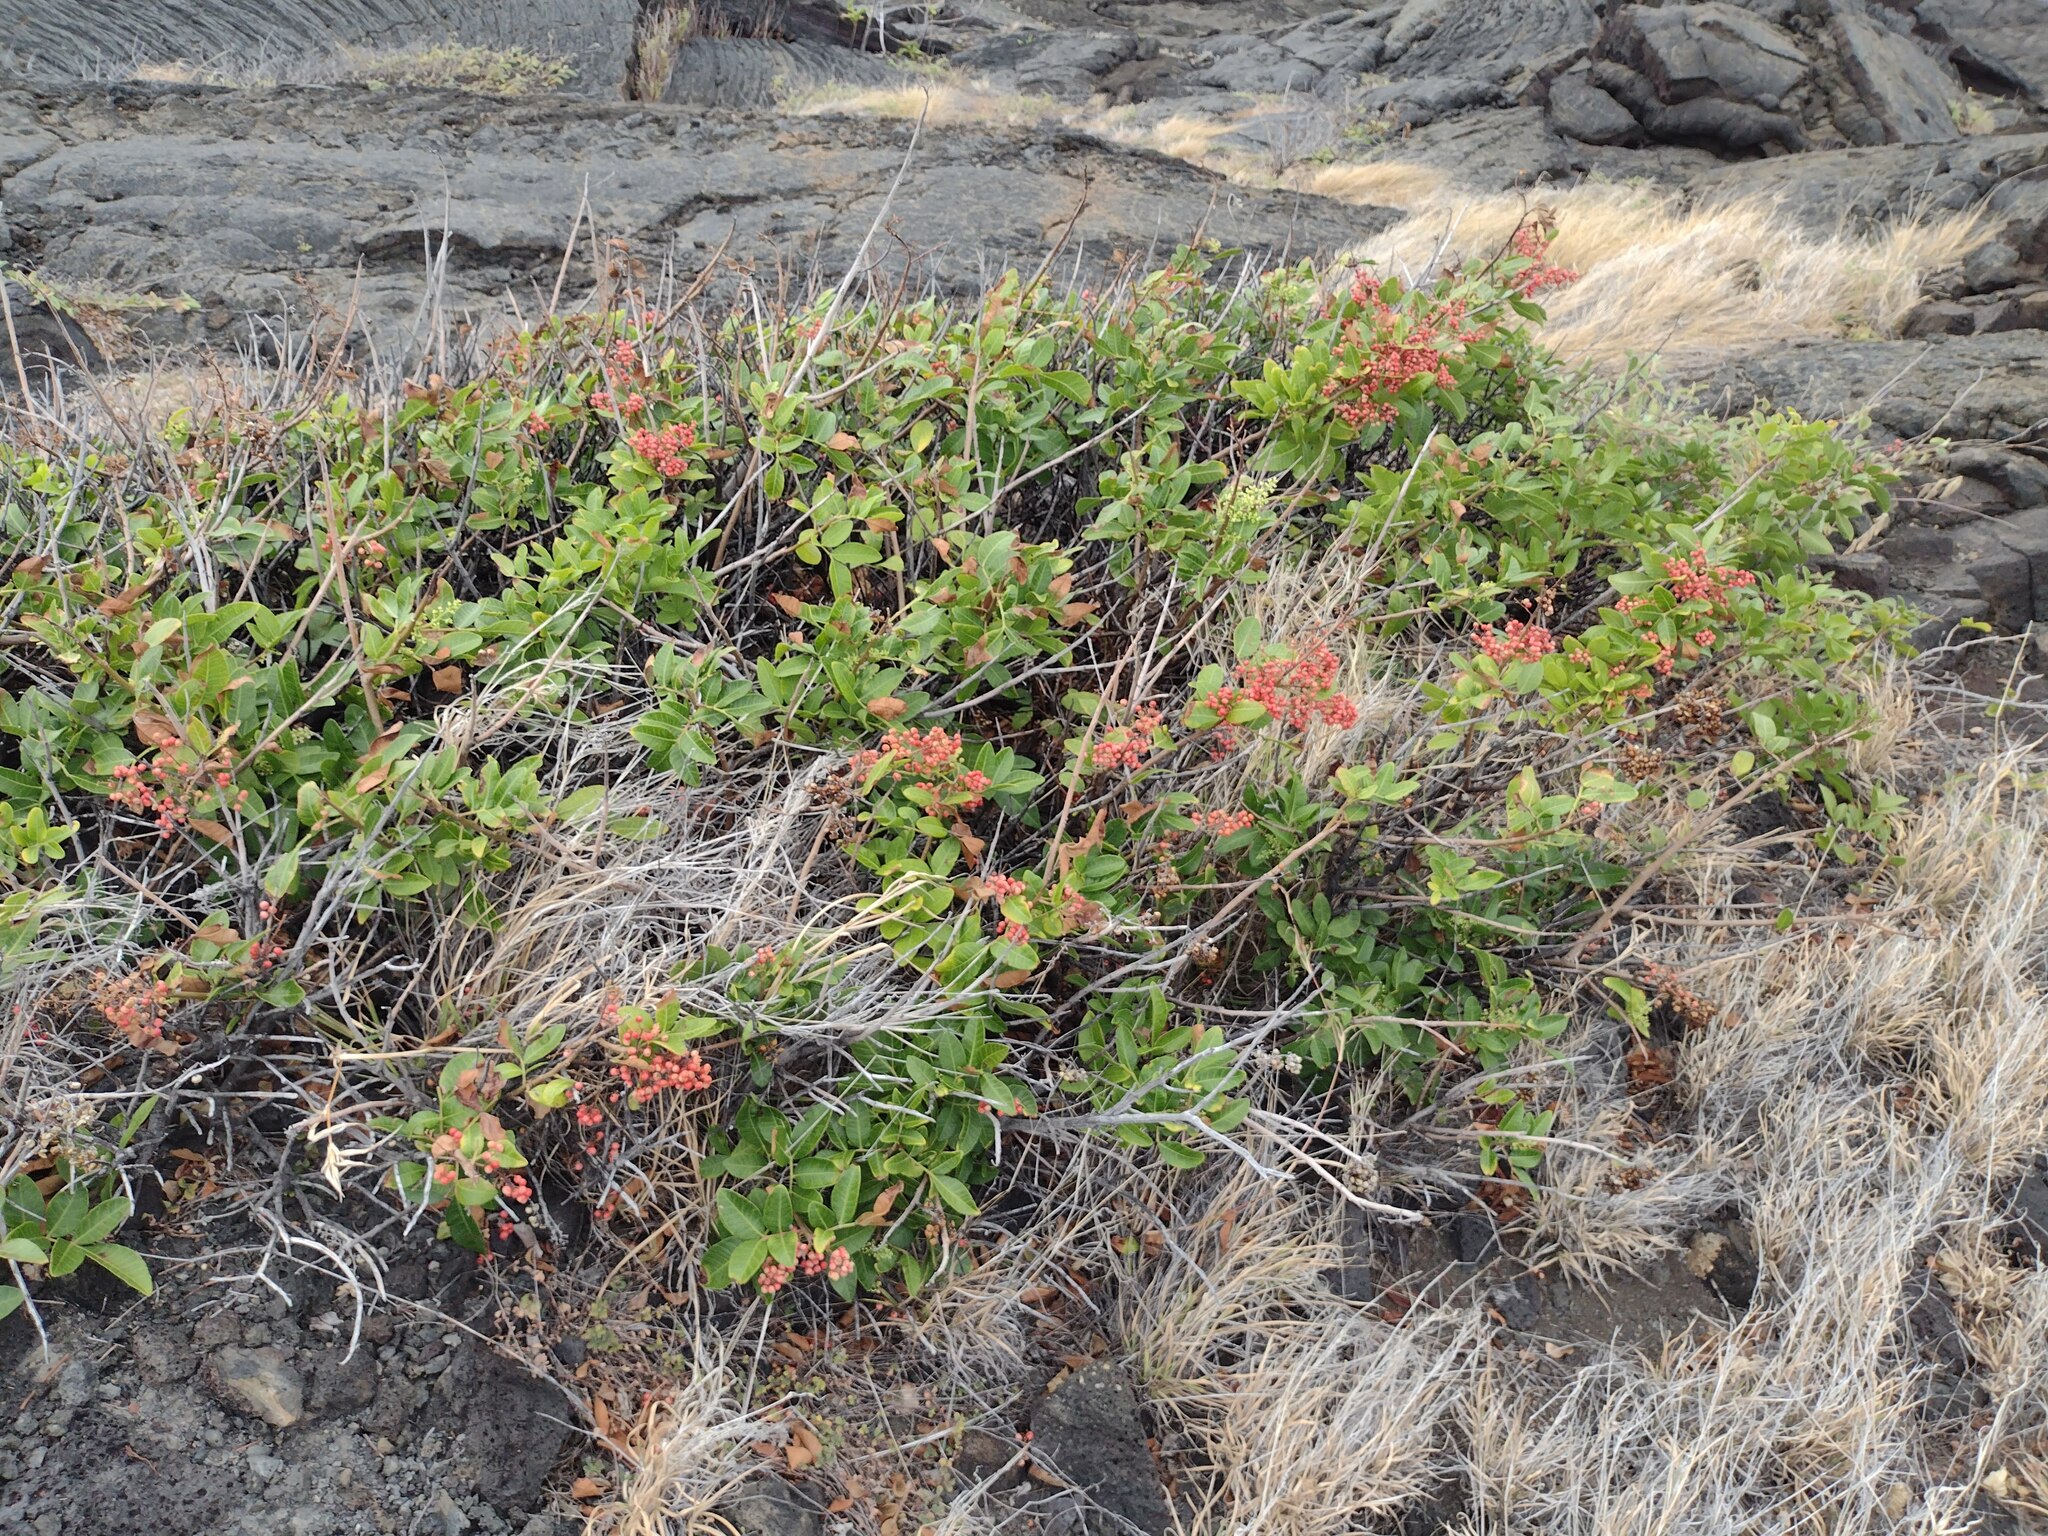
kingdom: Plantae
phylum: Tracheophyta
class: Magnoliopsida
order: Sapindales
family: Anacardiaceae
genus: Schinus
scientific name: Schinus terebinthifolia
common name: Brazilian peppertree
